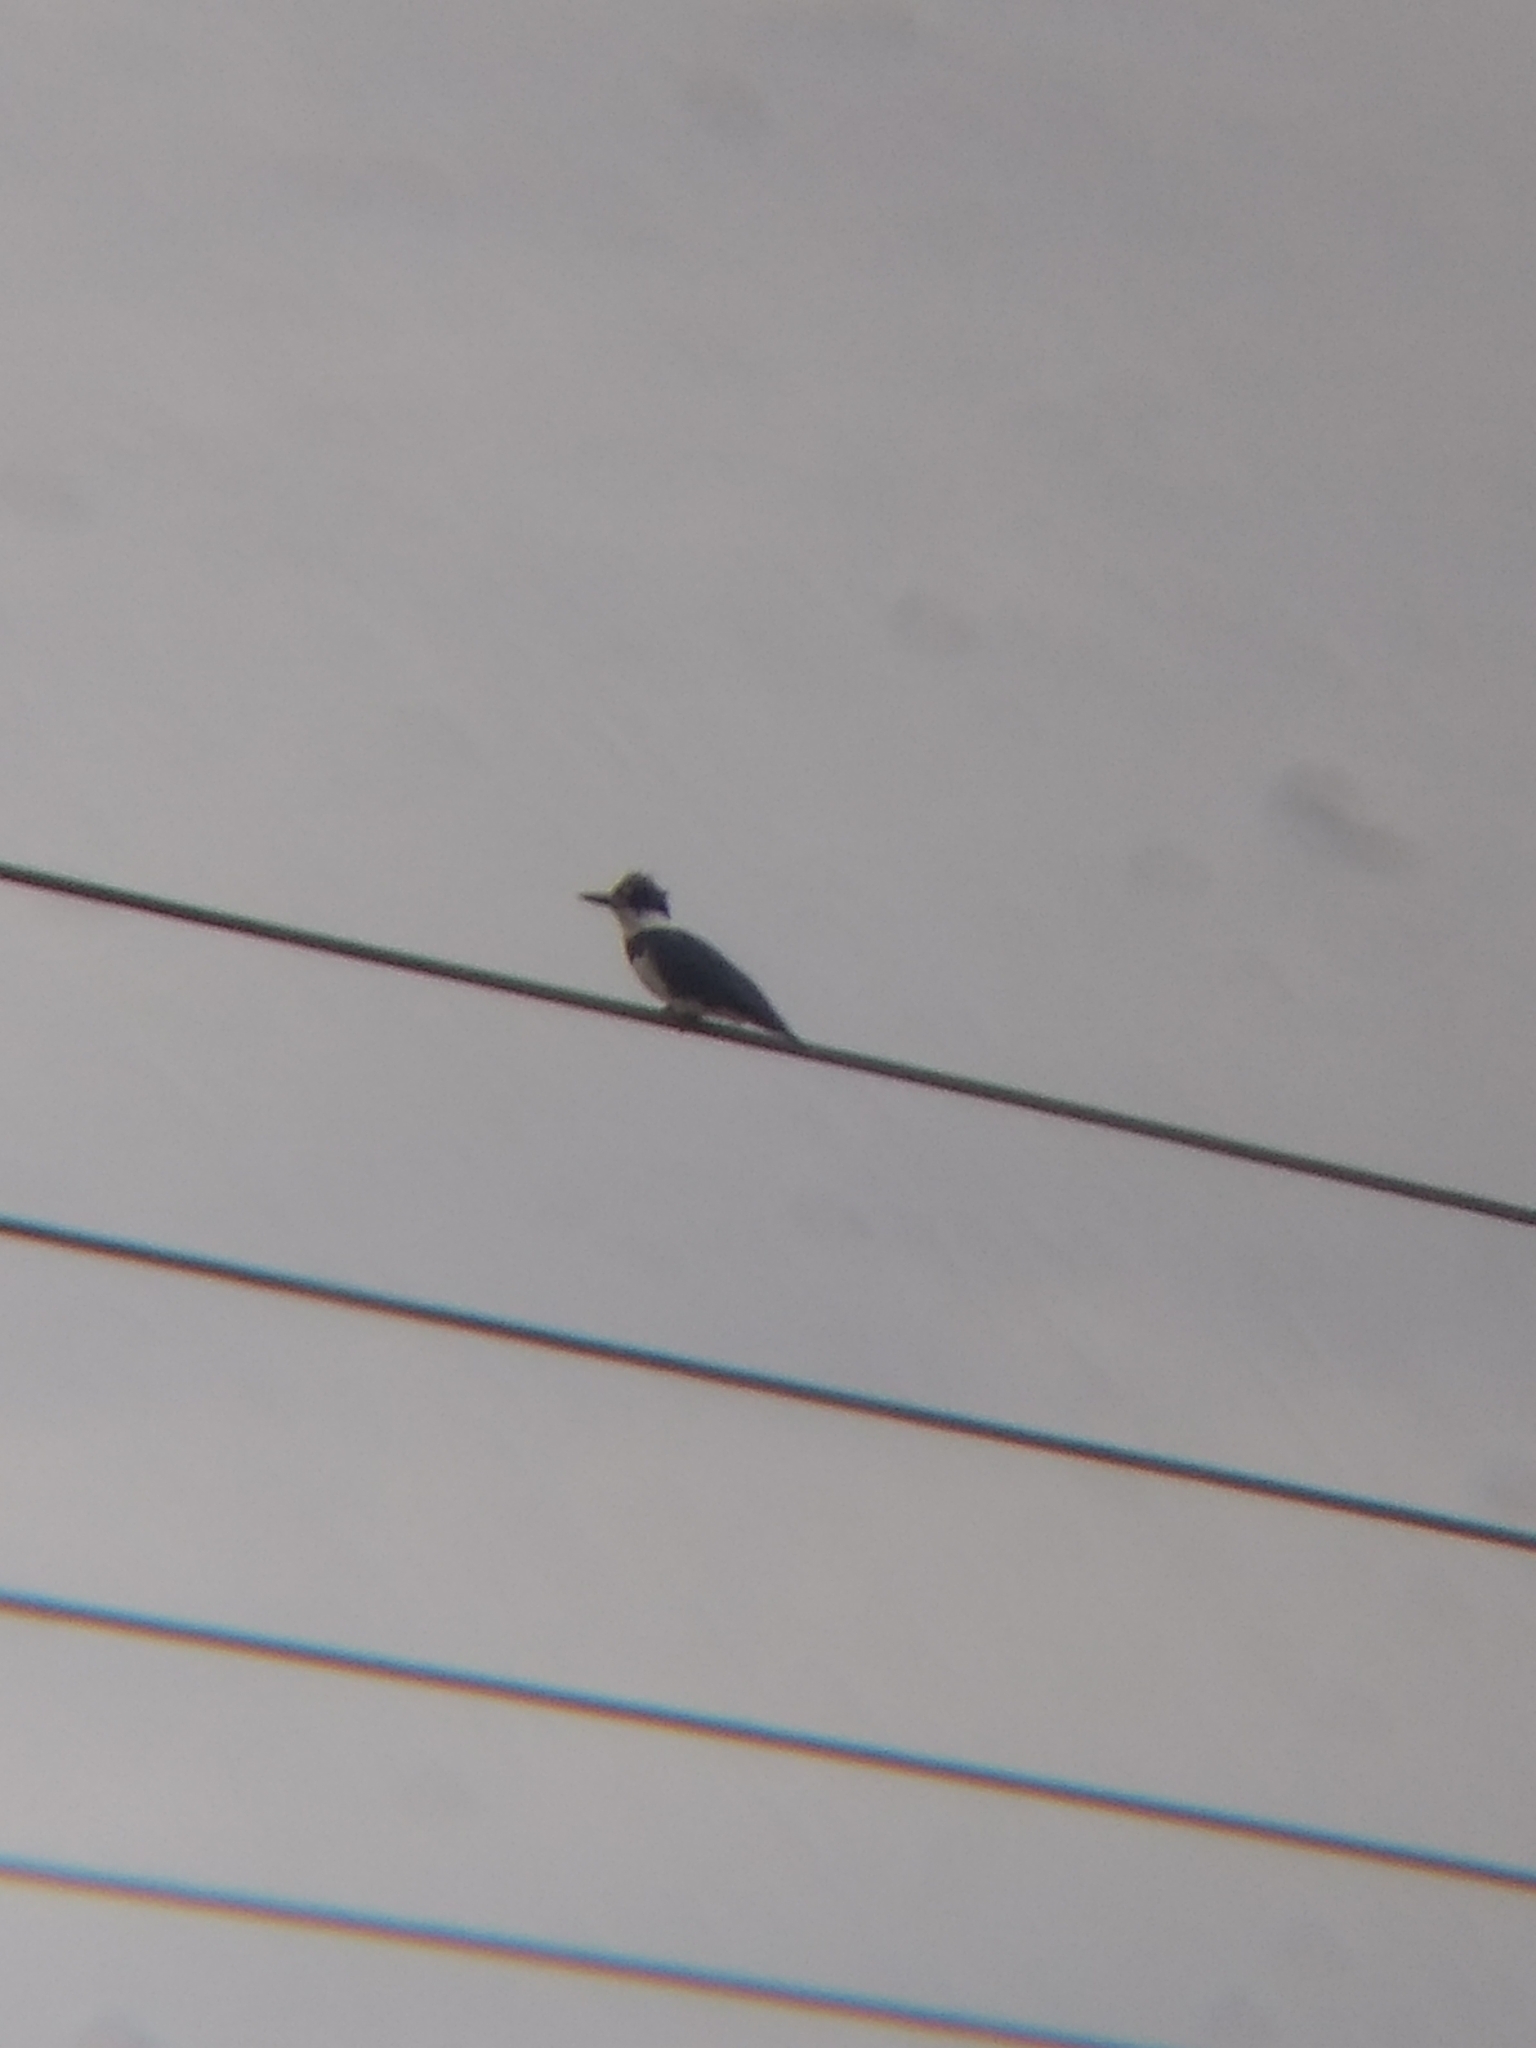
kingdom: Animalia
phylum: Chordata
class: Aves
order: Coraciiformes
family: Alcedinidae
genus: Megaceryle
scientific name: Megaceryle alcyon
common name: Belted kingfisher
